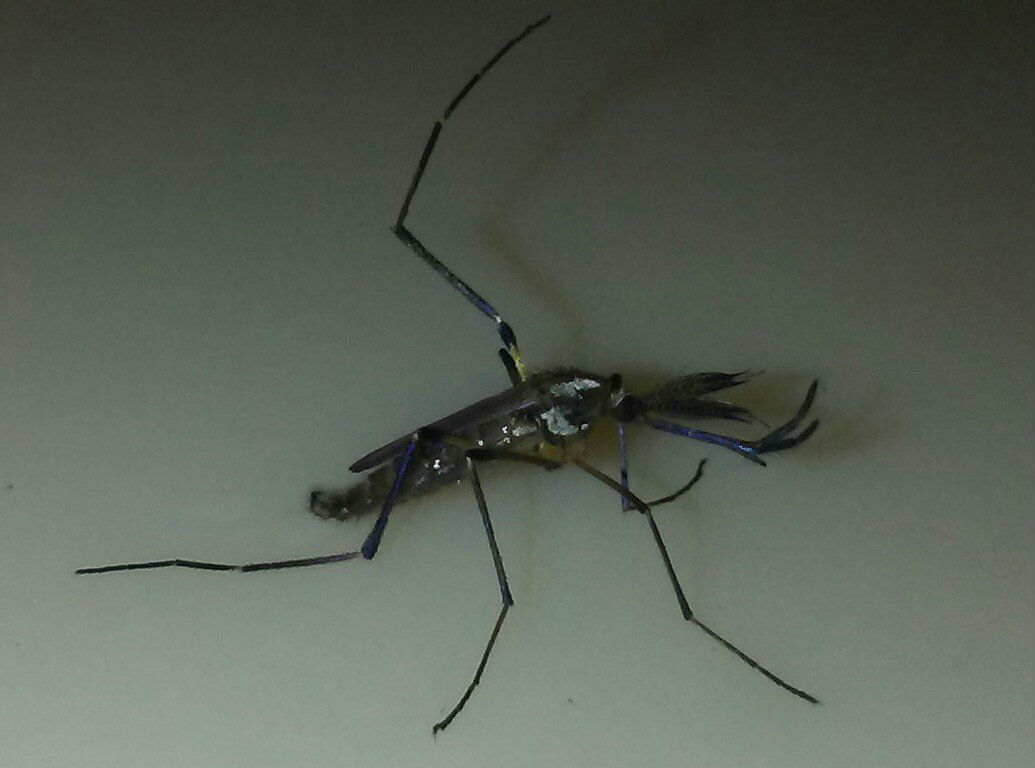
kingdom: Animalia
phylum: Arthropoda
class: Insecta
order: Diptera
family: Culicidae
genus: Psorophora
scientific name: Psorophora howardii
